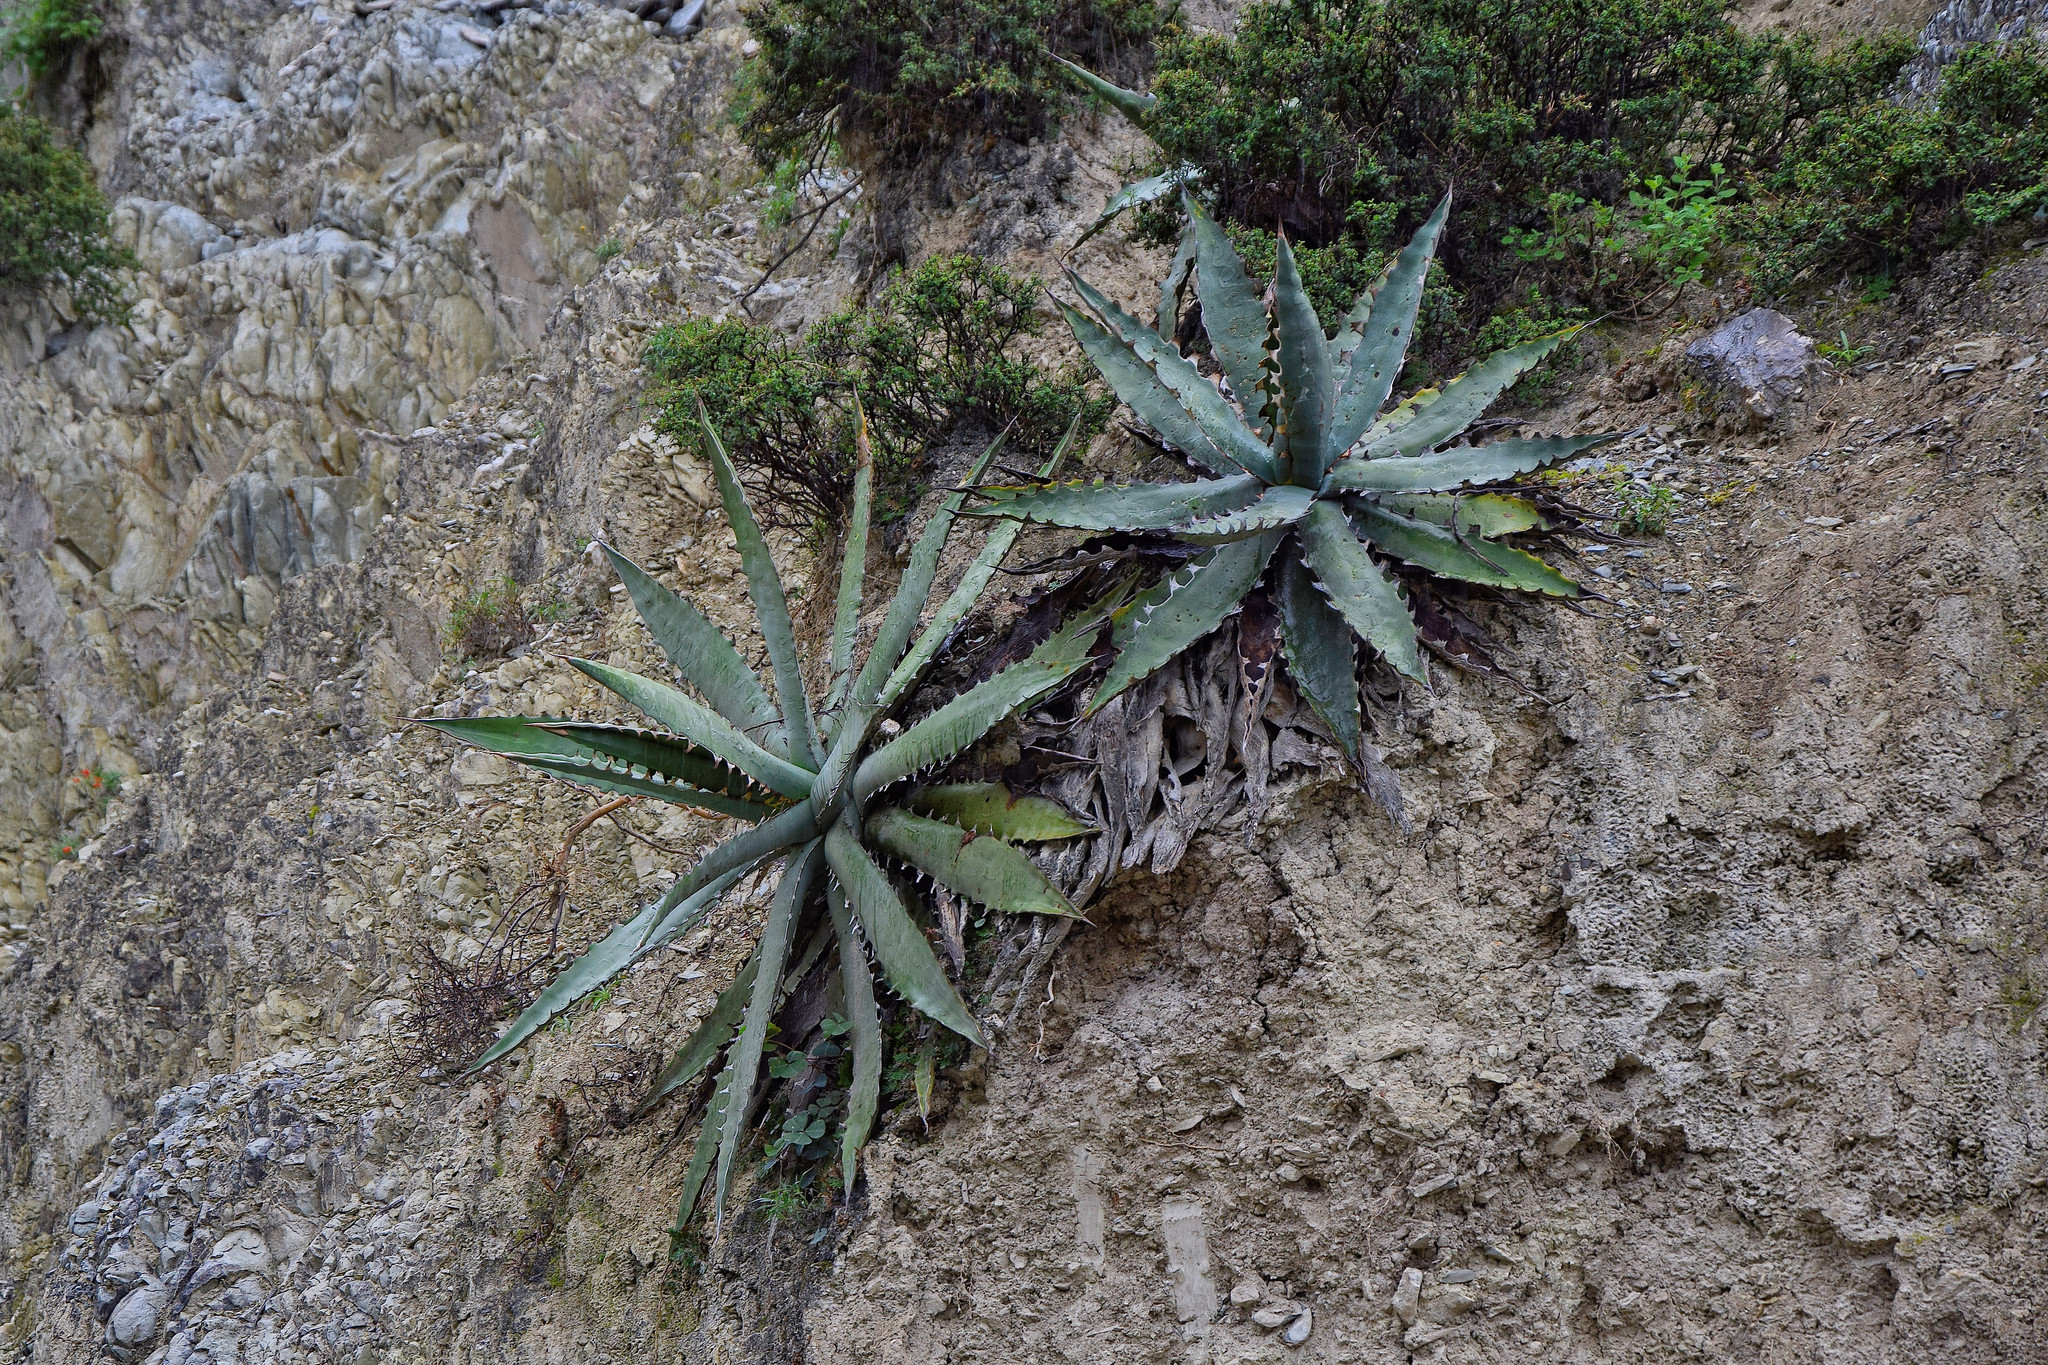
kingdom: Plantae
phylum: Tracheophyta
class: Liliopsida
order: Asparagales
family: Asparagaceae
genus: Agave
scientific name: Agave xylonacantha
